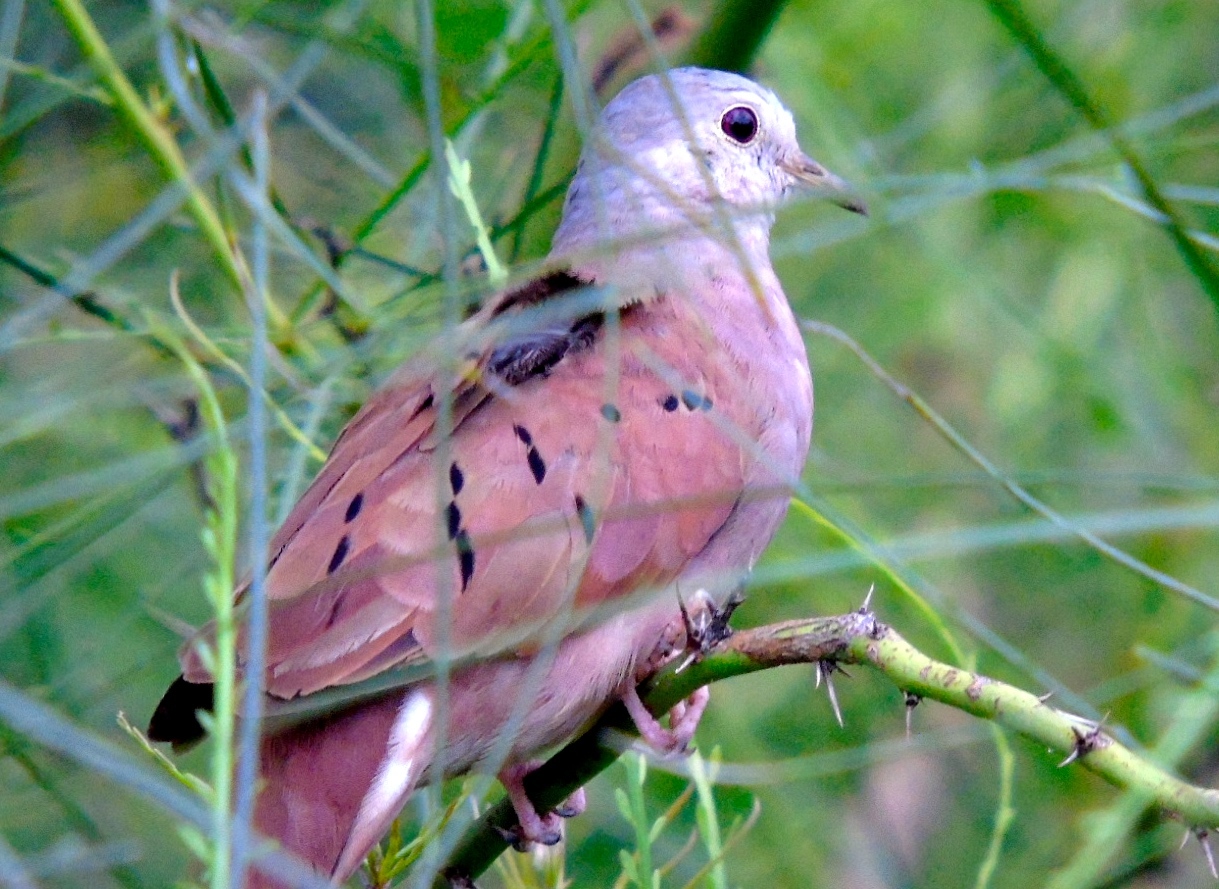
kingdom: Animalia
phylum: Chordata
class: Aves
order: Columbiformes
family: Columbidae
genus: Columbina
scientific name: Columbina talpacoti
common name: Ruddy ground dove
